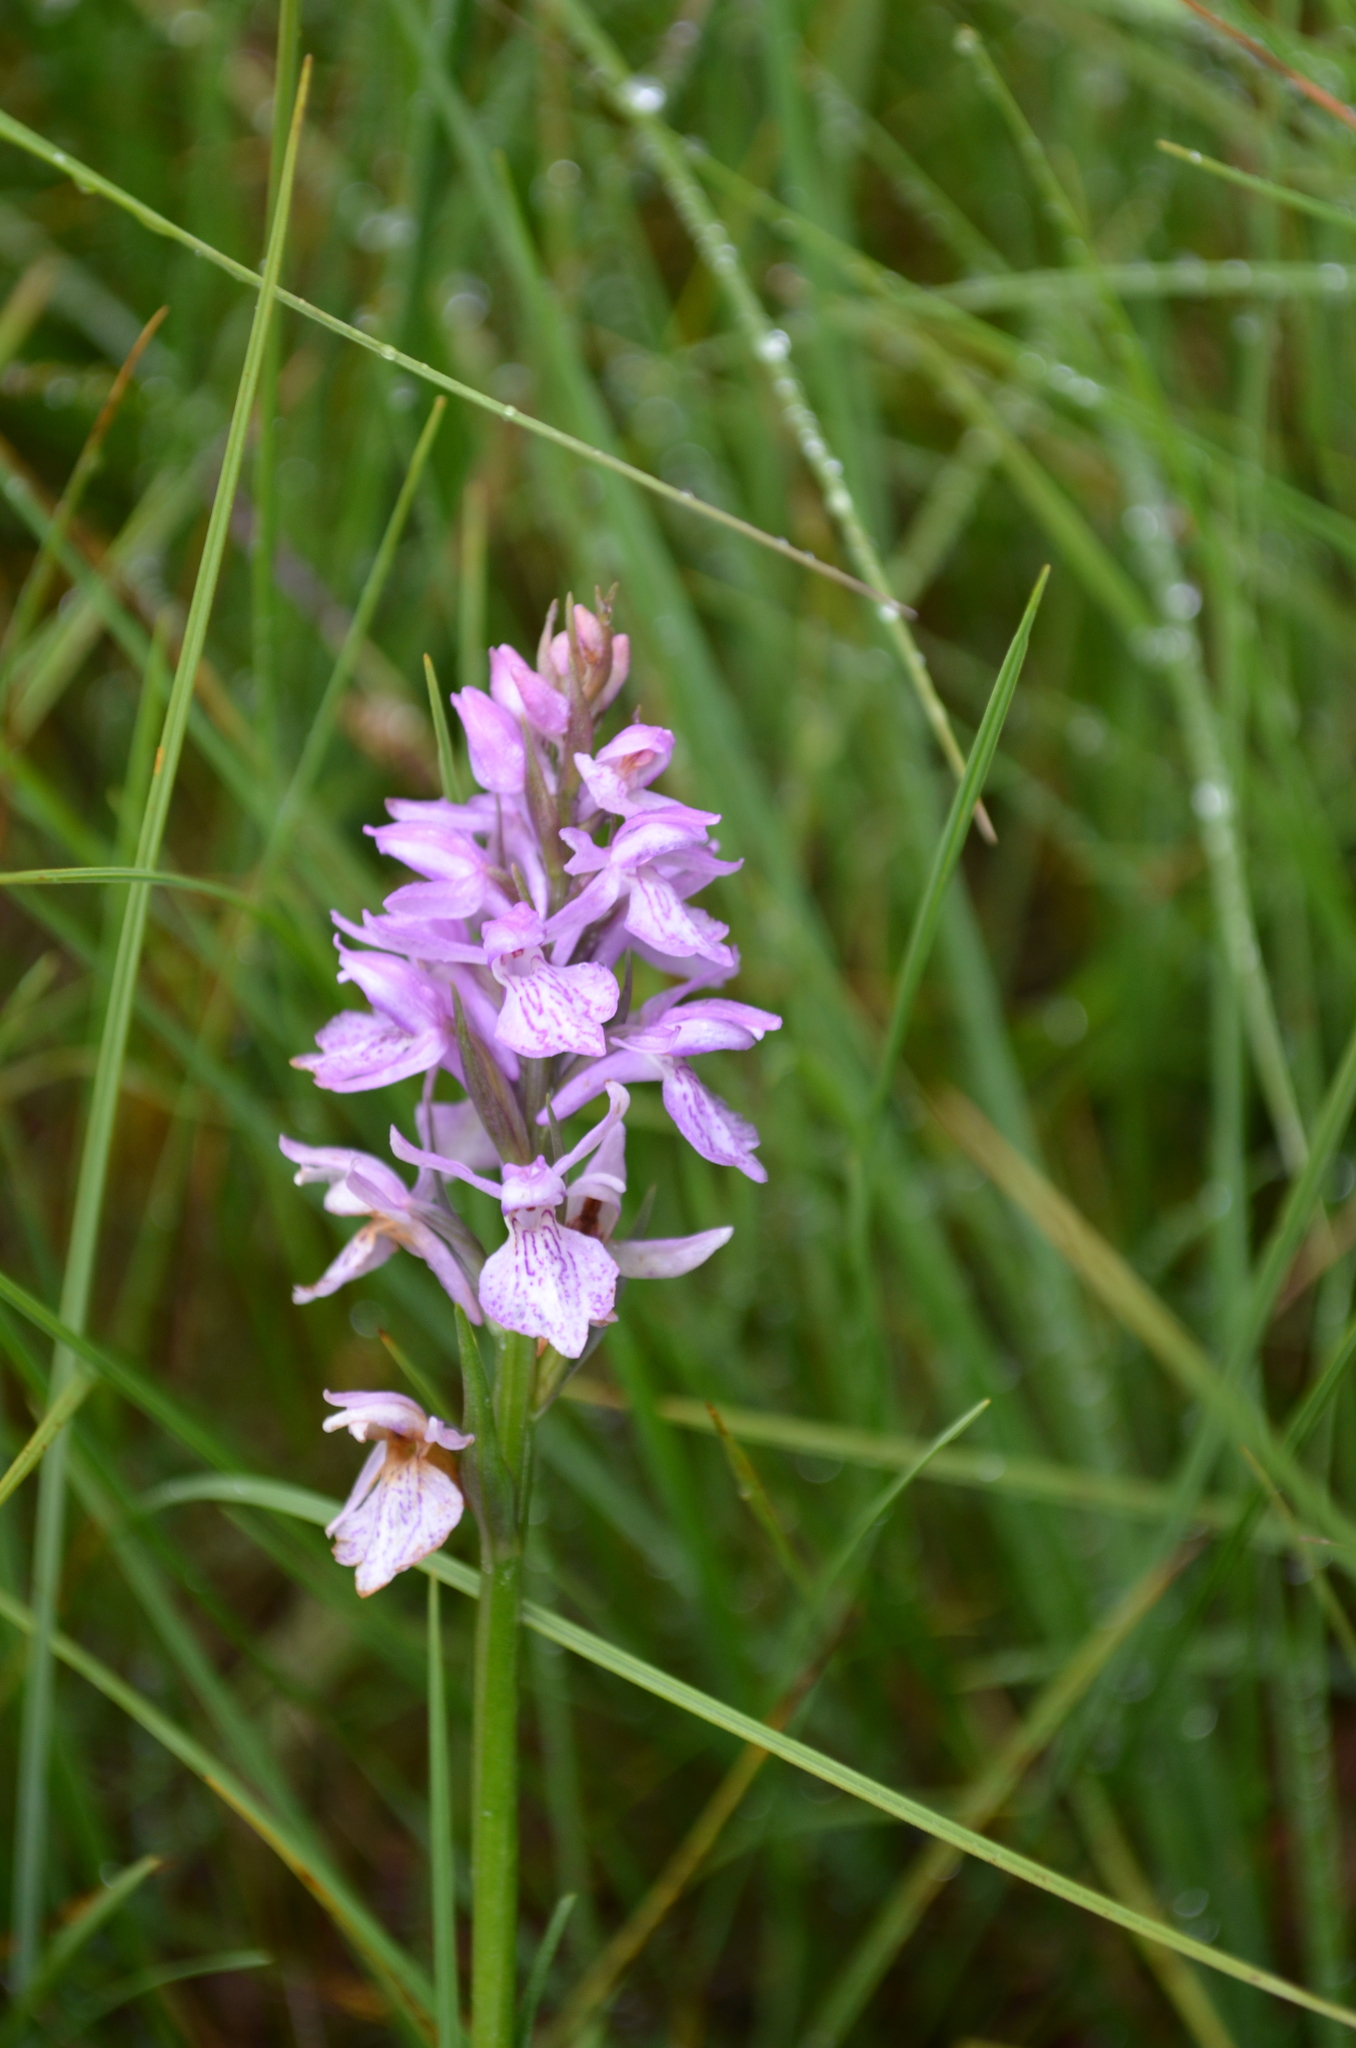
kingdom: Plantae
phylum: Tracheophyta
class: Liliopsida
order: Asparagales
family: Orchidaceae
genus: Dactylorhiza
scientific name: Dactylorhiza maculata
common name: Heath spotted-orchid
